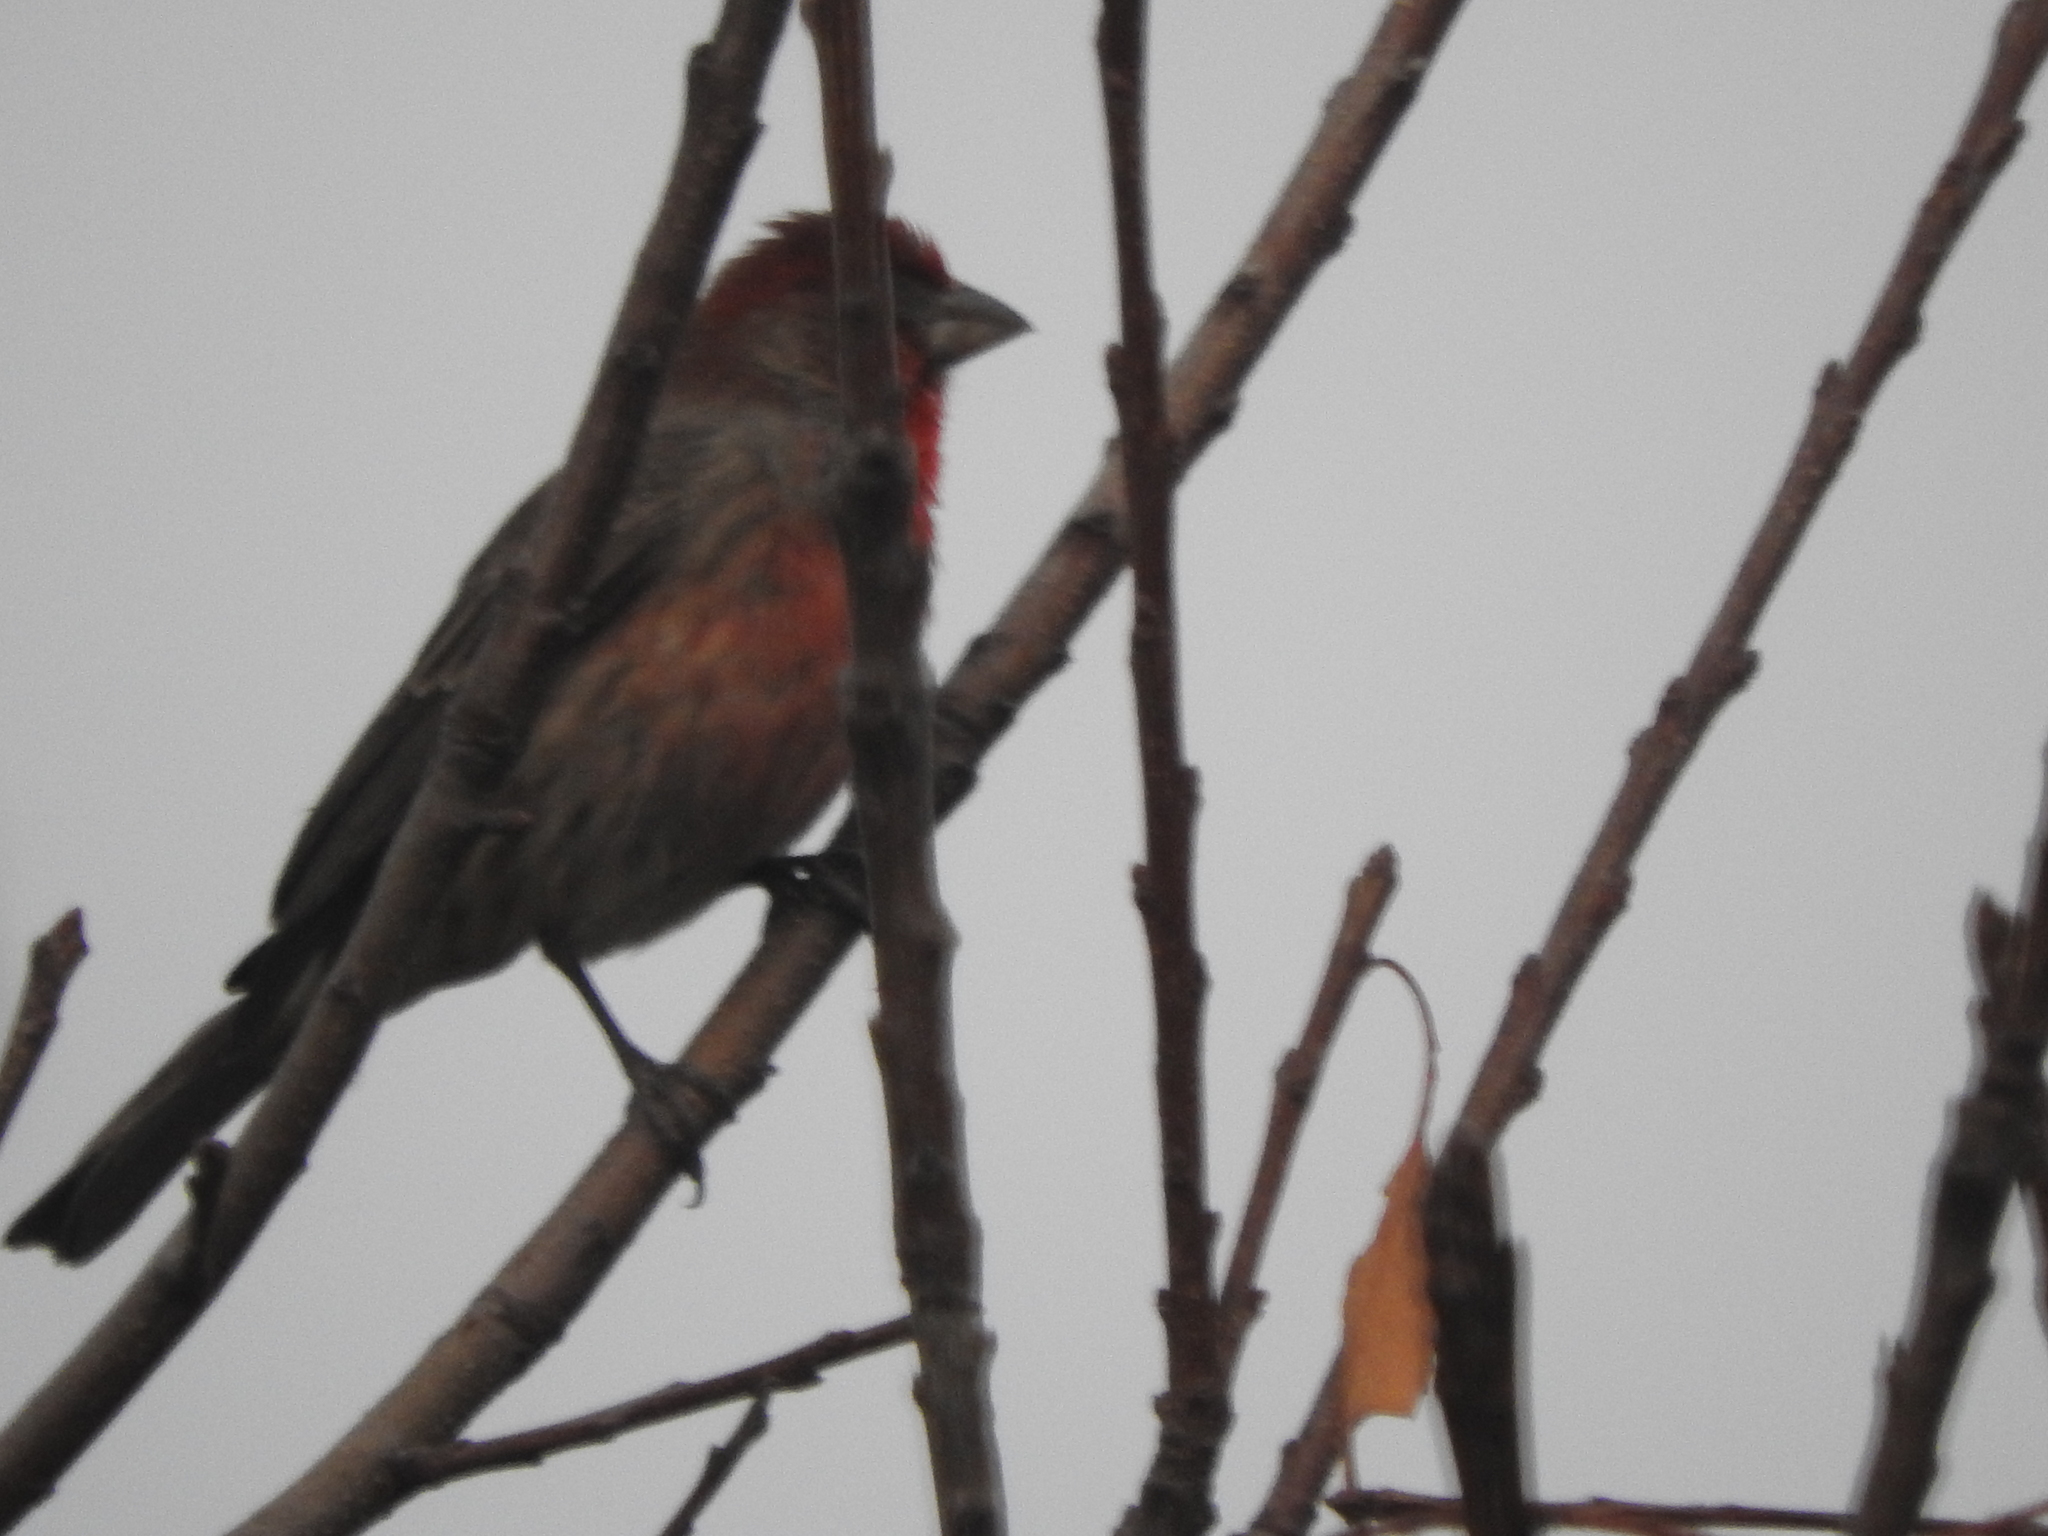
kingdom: Animalia
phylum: Chordata
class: Aves
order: Passeriformes
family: Fringillidae
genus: Haemorhous
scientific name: Haemorhous mexicanus
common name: House finch
